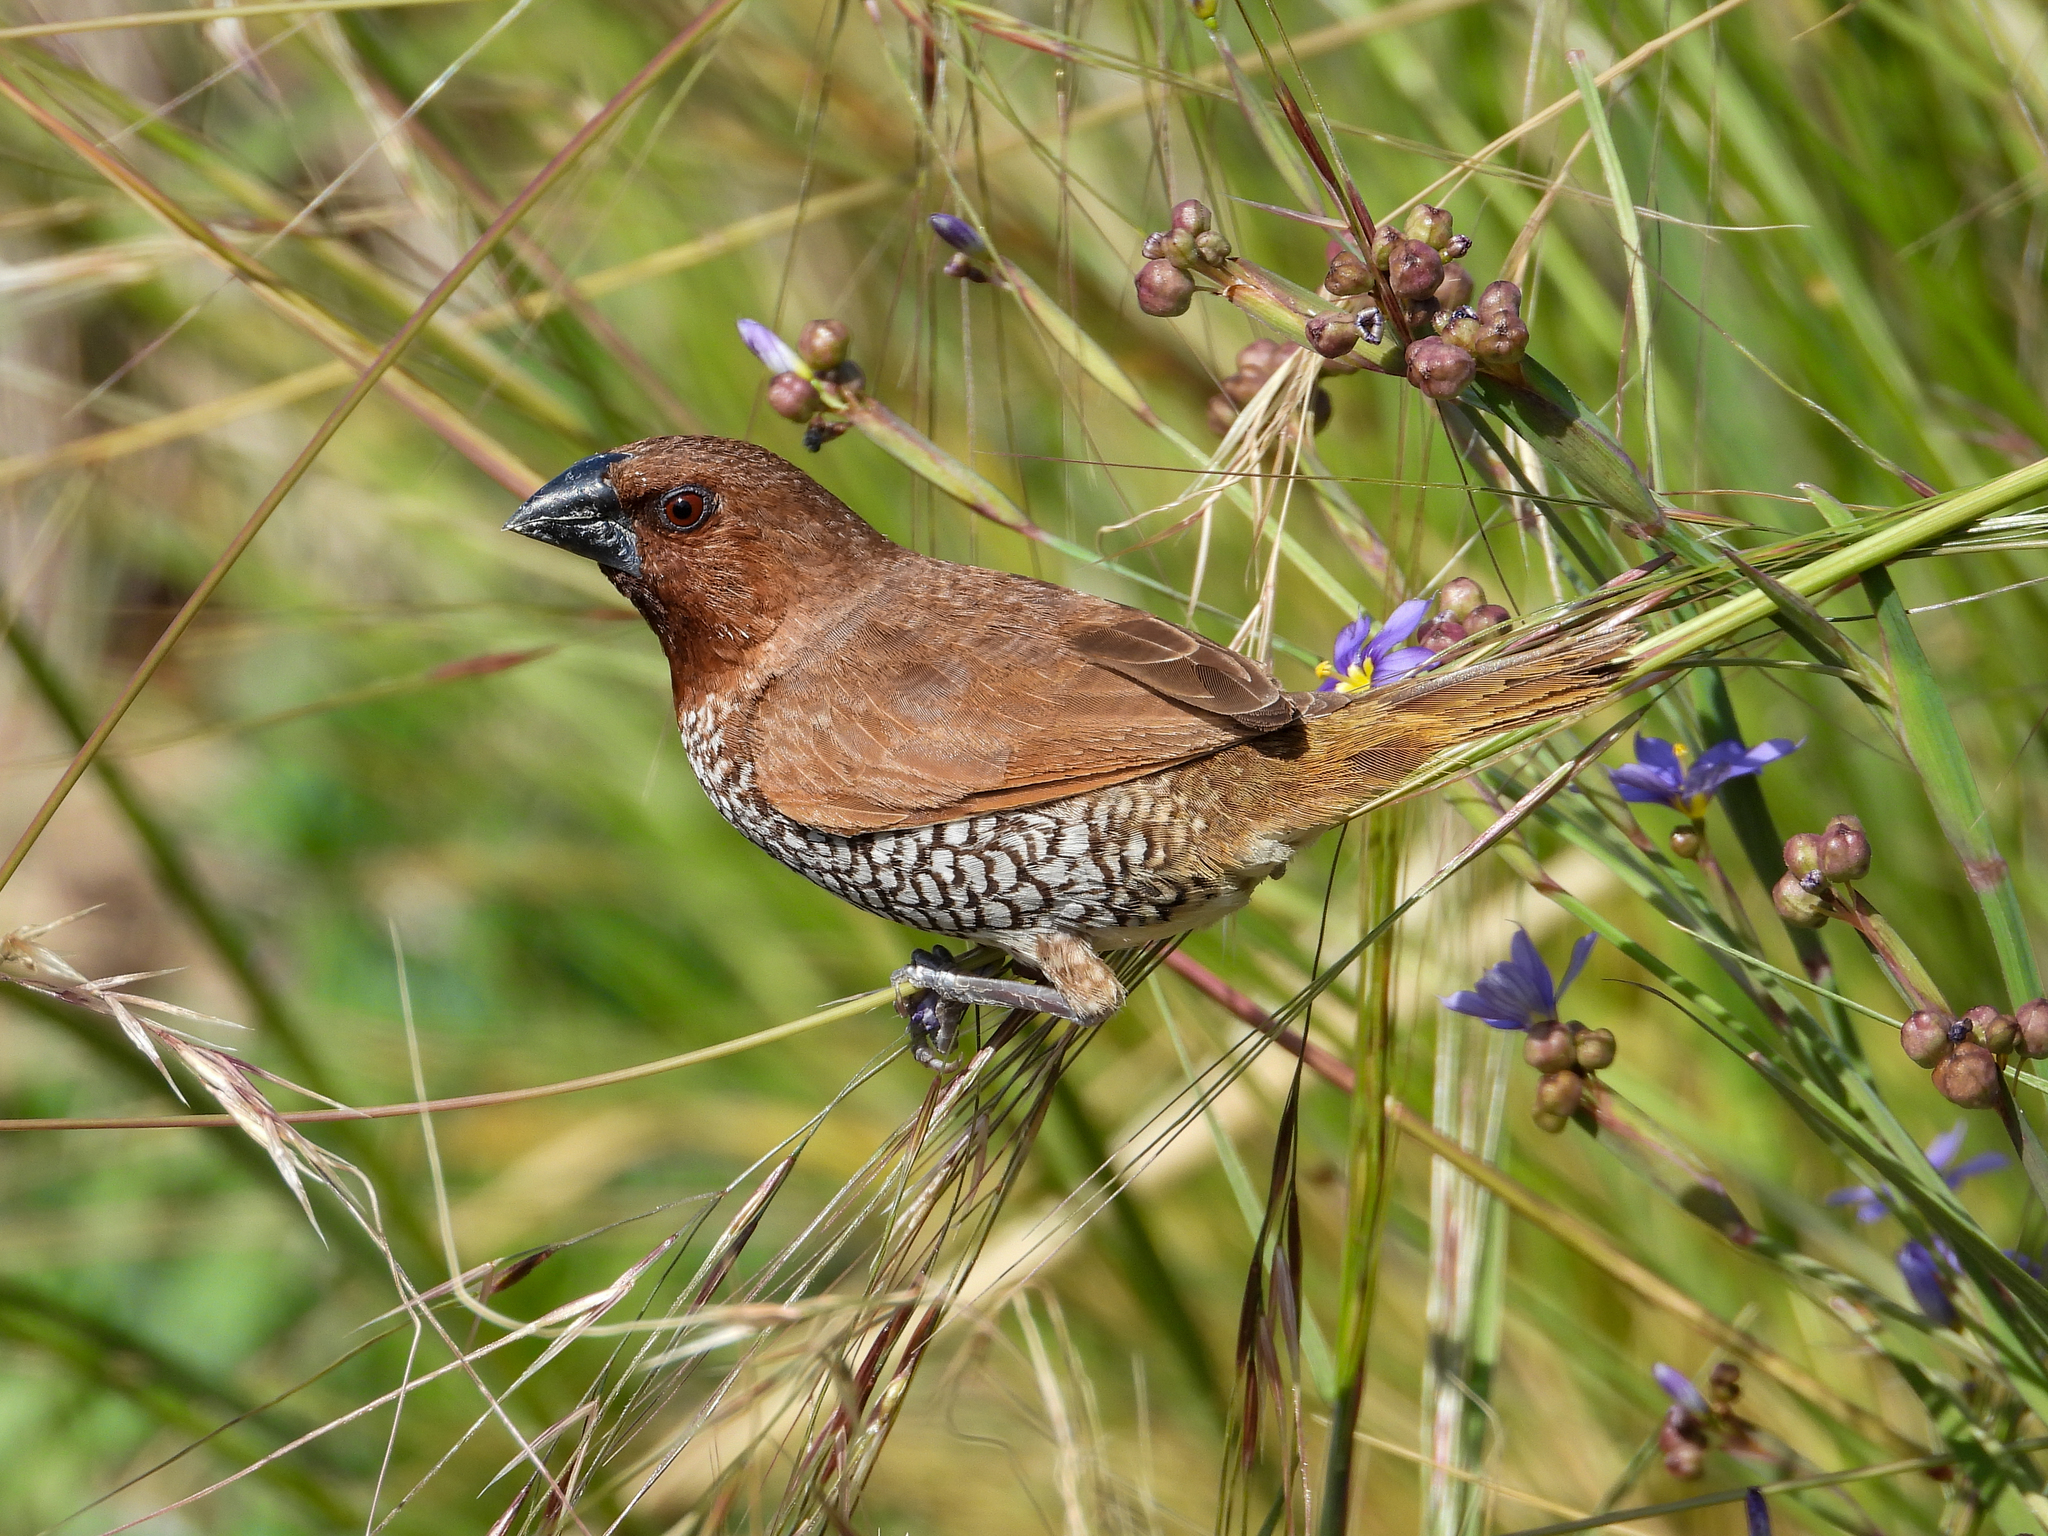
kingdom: Animalia
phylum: Chordata
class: Aves
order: Passeriformes
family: Estrildidae
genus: Lonchura
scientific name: Lonchura punctulata
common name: Scaly-breasted munia
